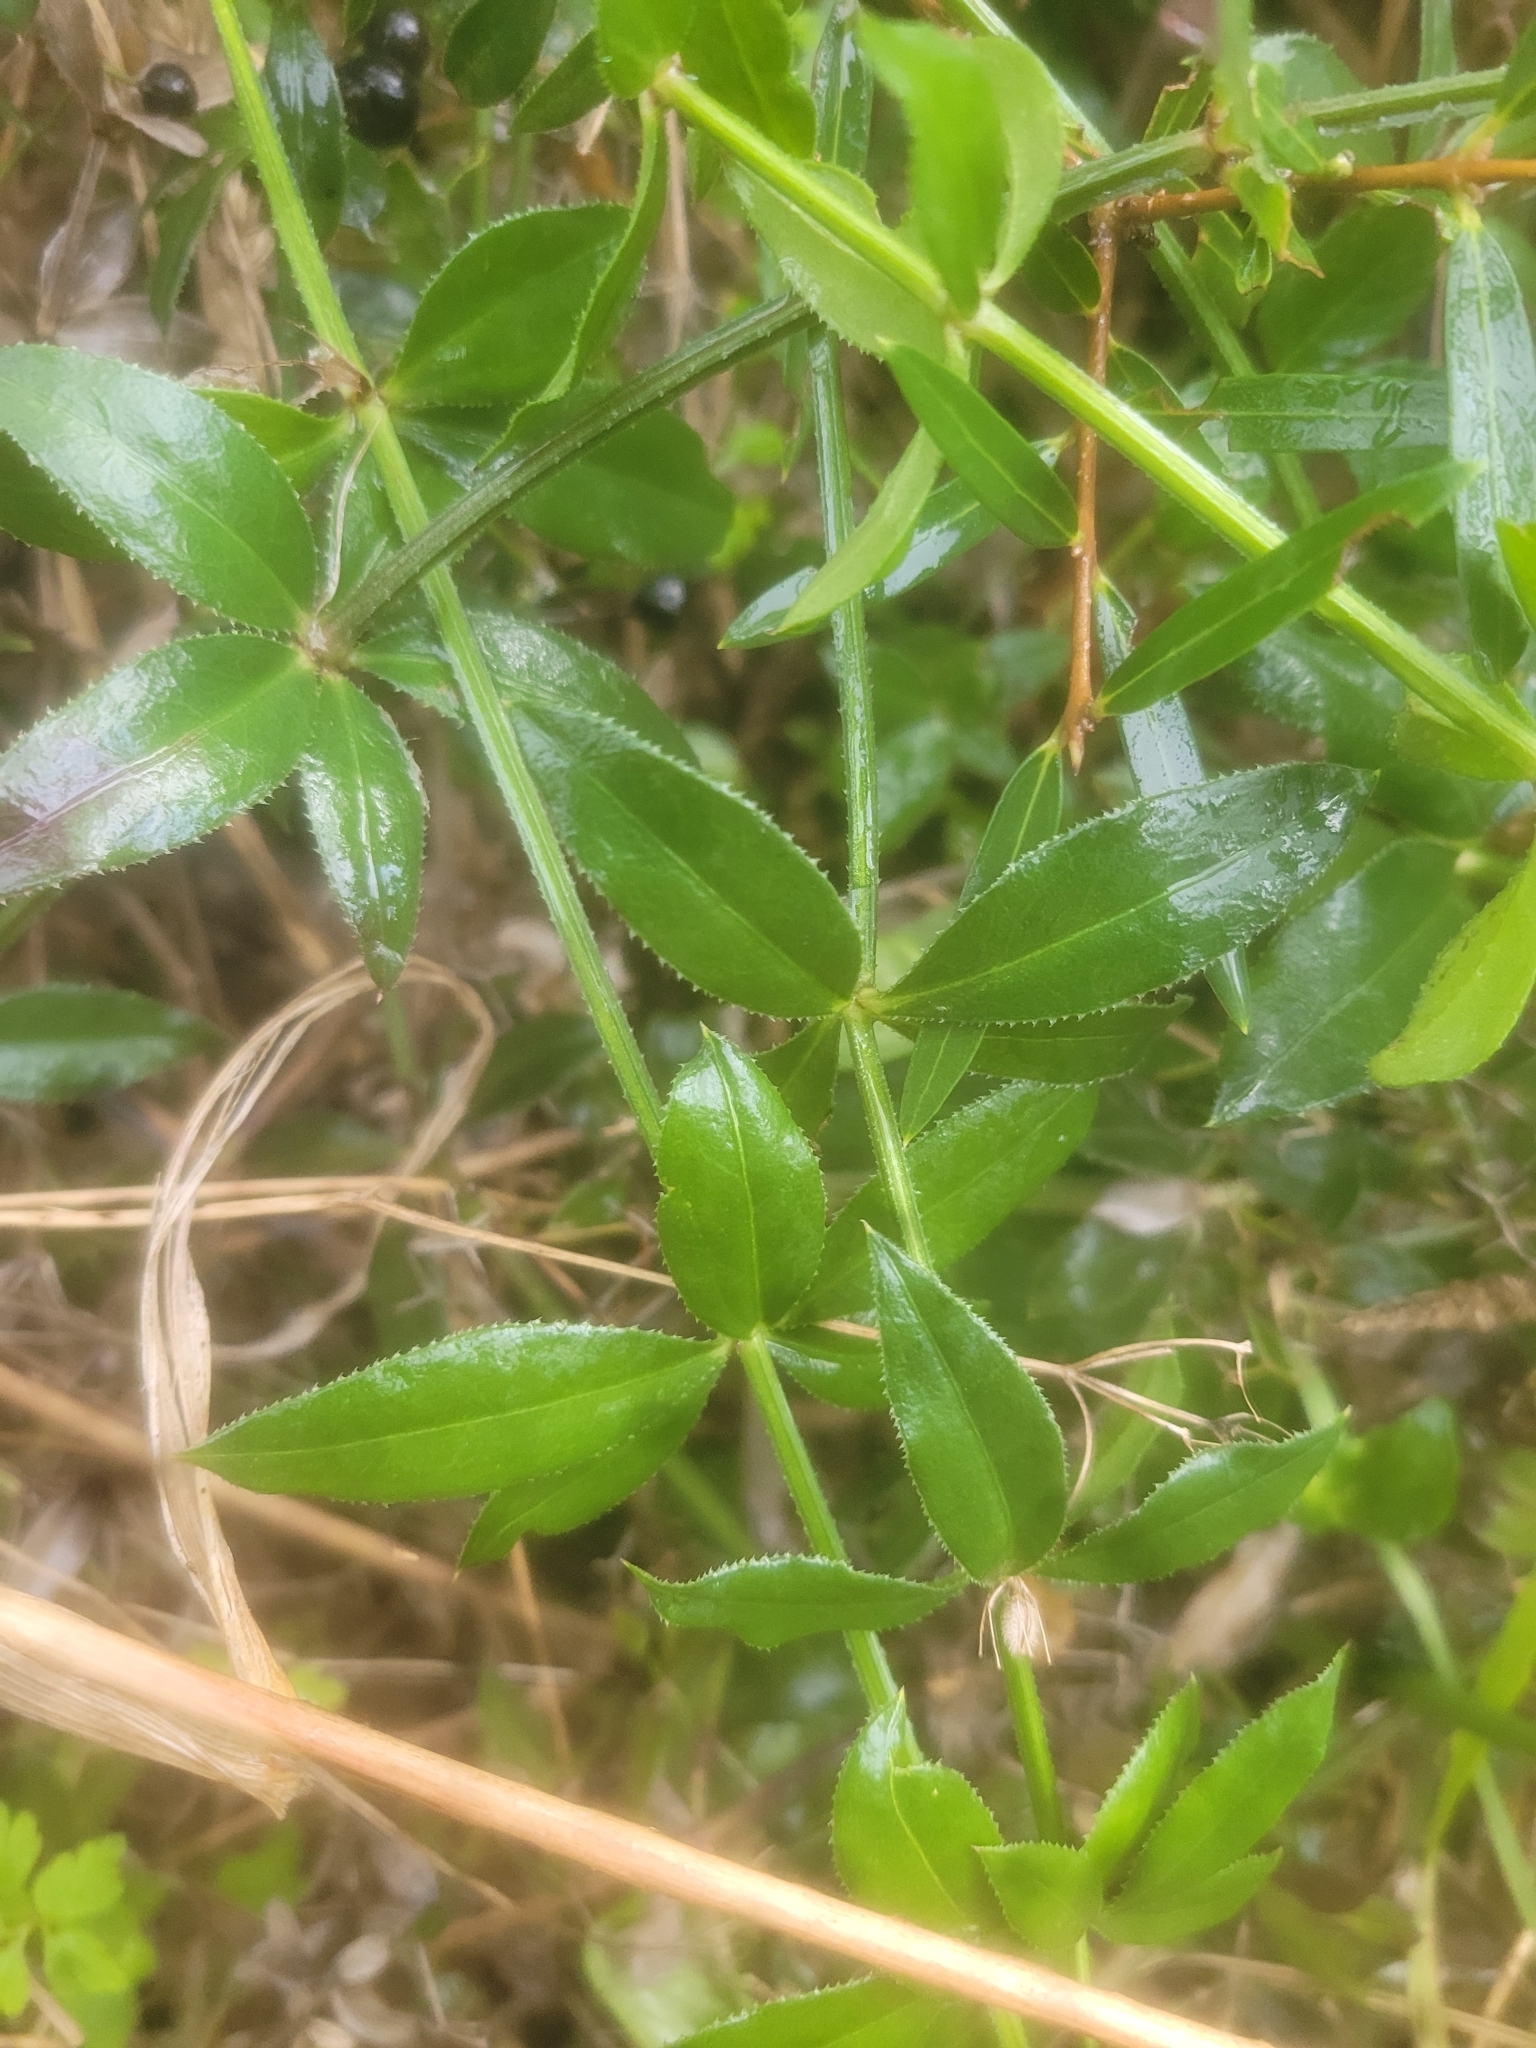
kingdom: Plantae
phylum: Tracheophyta
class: Magnoliopsida
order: Gentianales
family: Rubiaceae
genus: Rubia
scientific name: Rubia peregrina
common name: Wild madder
